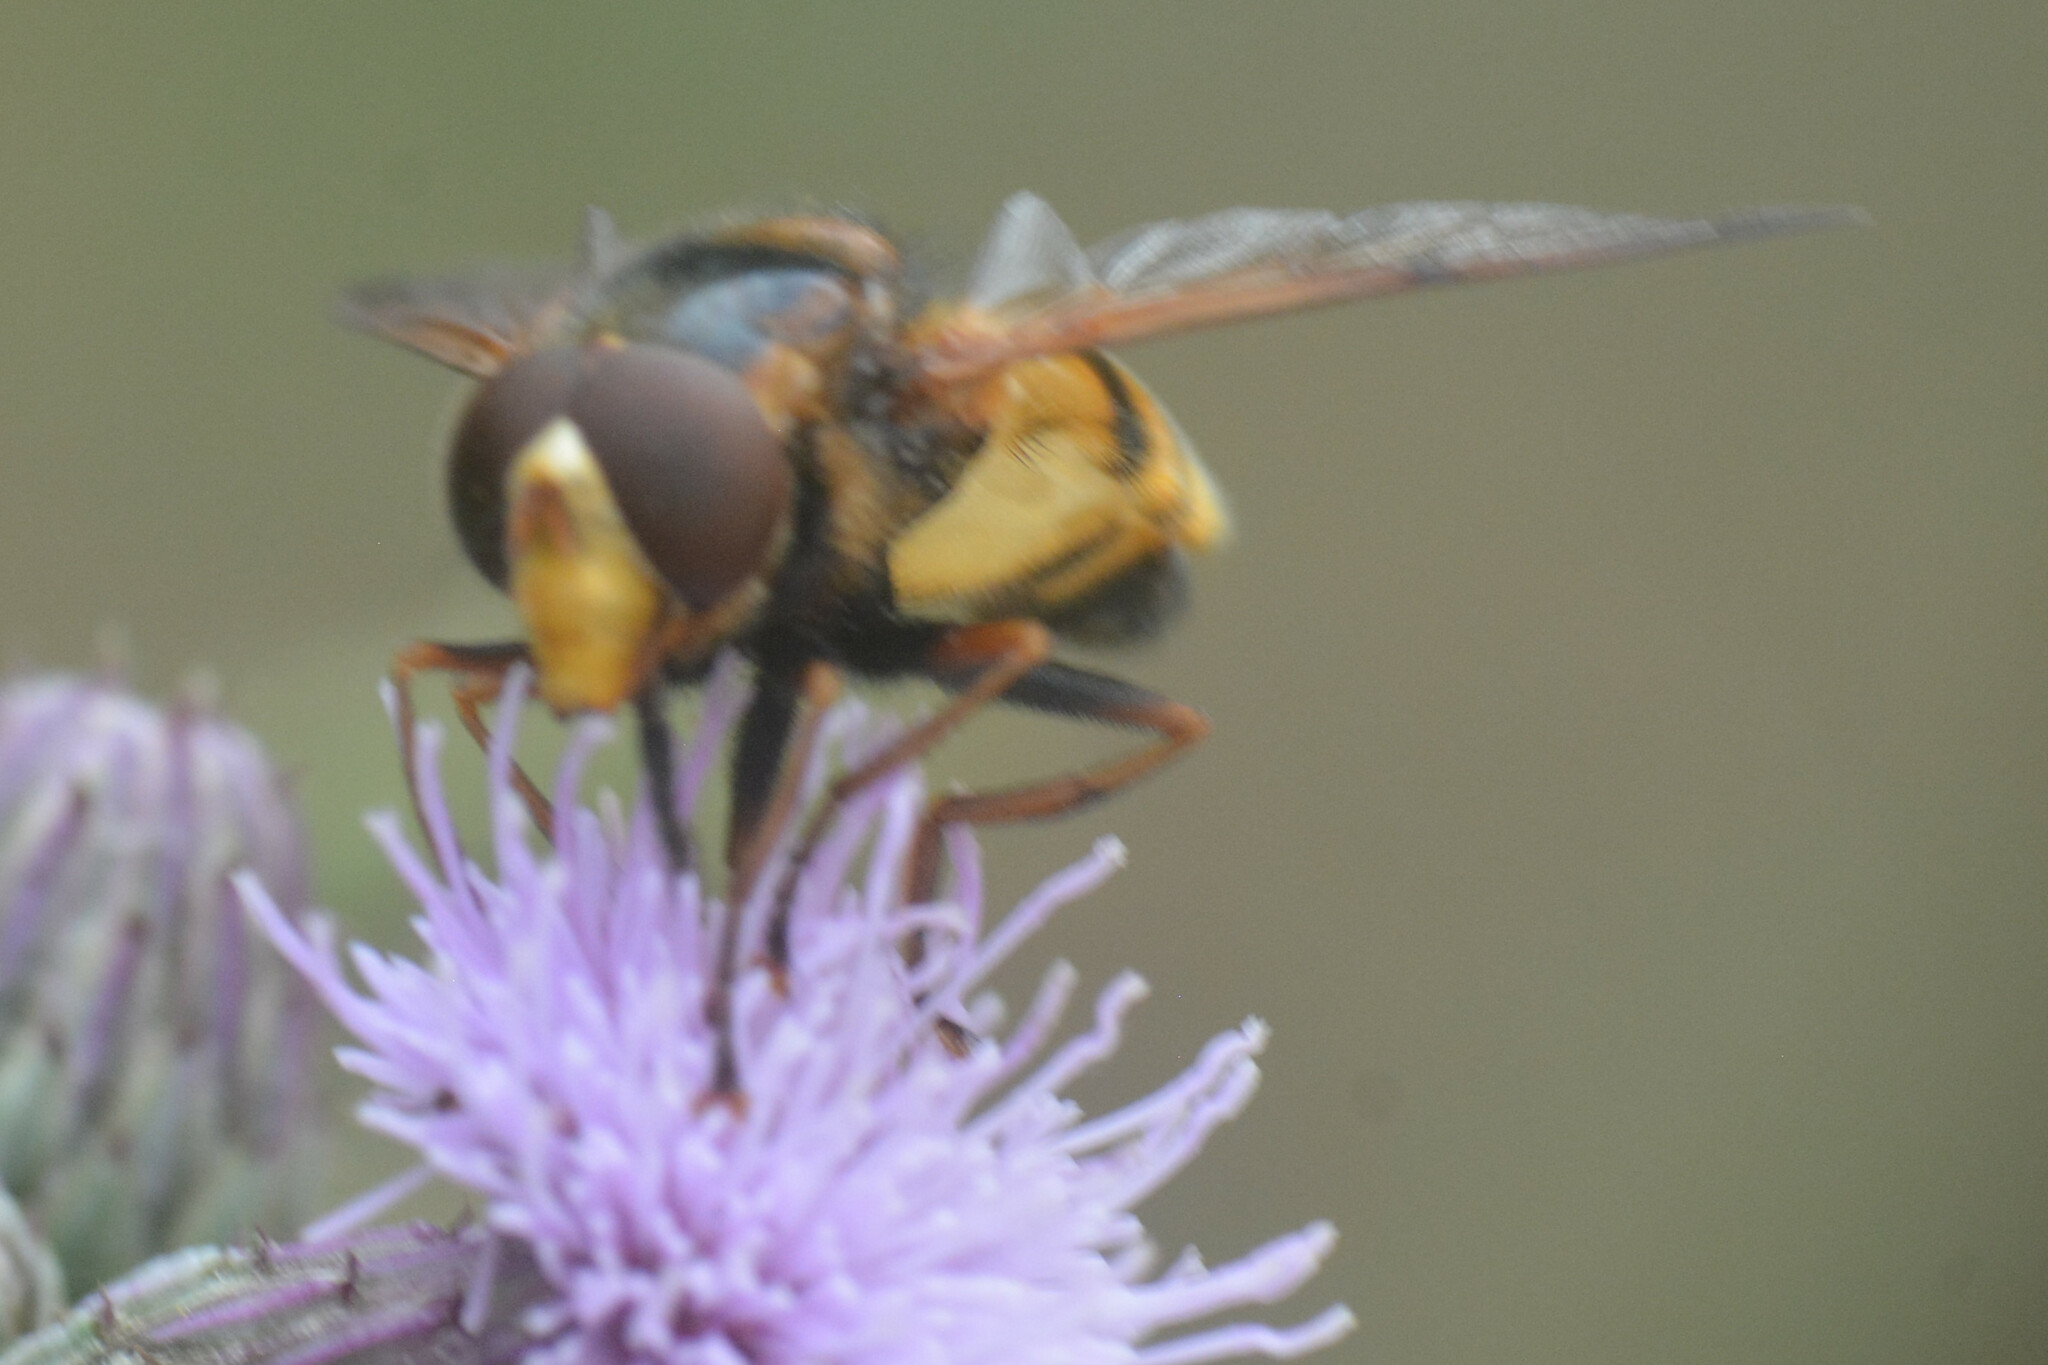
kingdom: Animalia
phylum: Arthropoda
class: Insecta
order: Diptera
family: Syrphidae
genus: Volucella
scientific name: Volucella inanis
